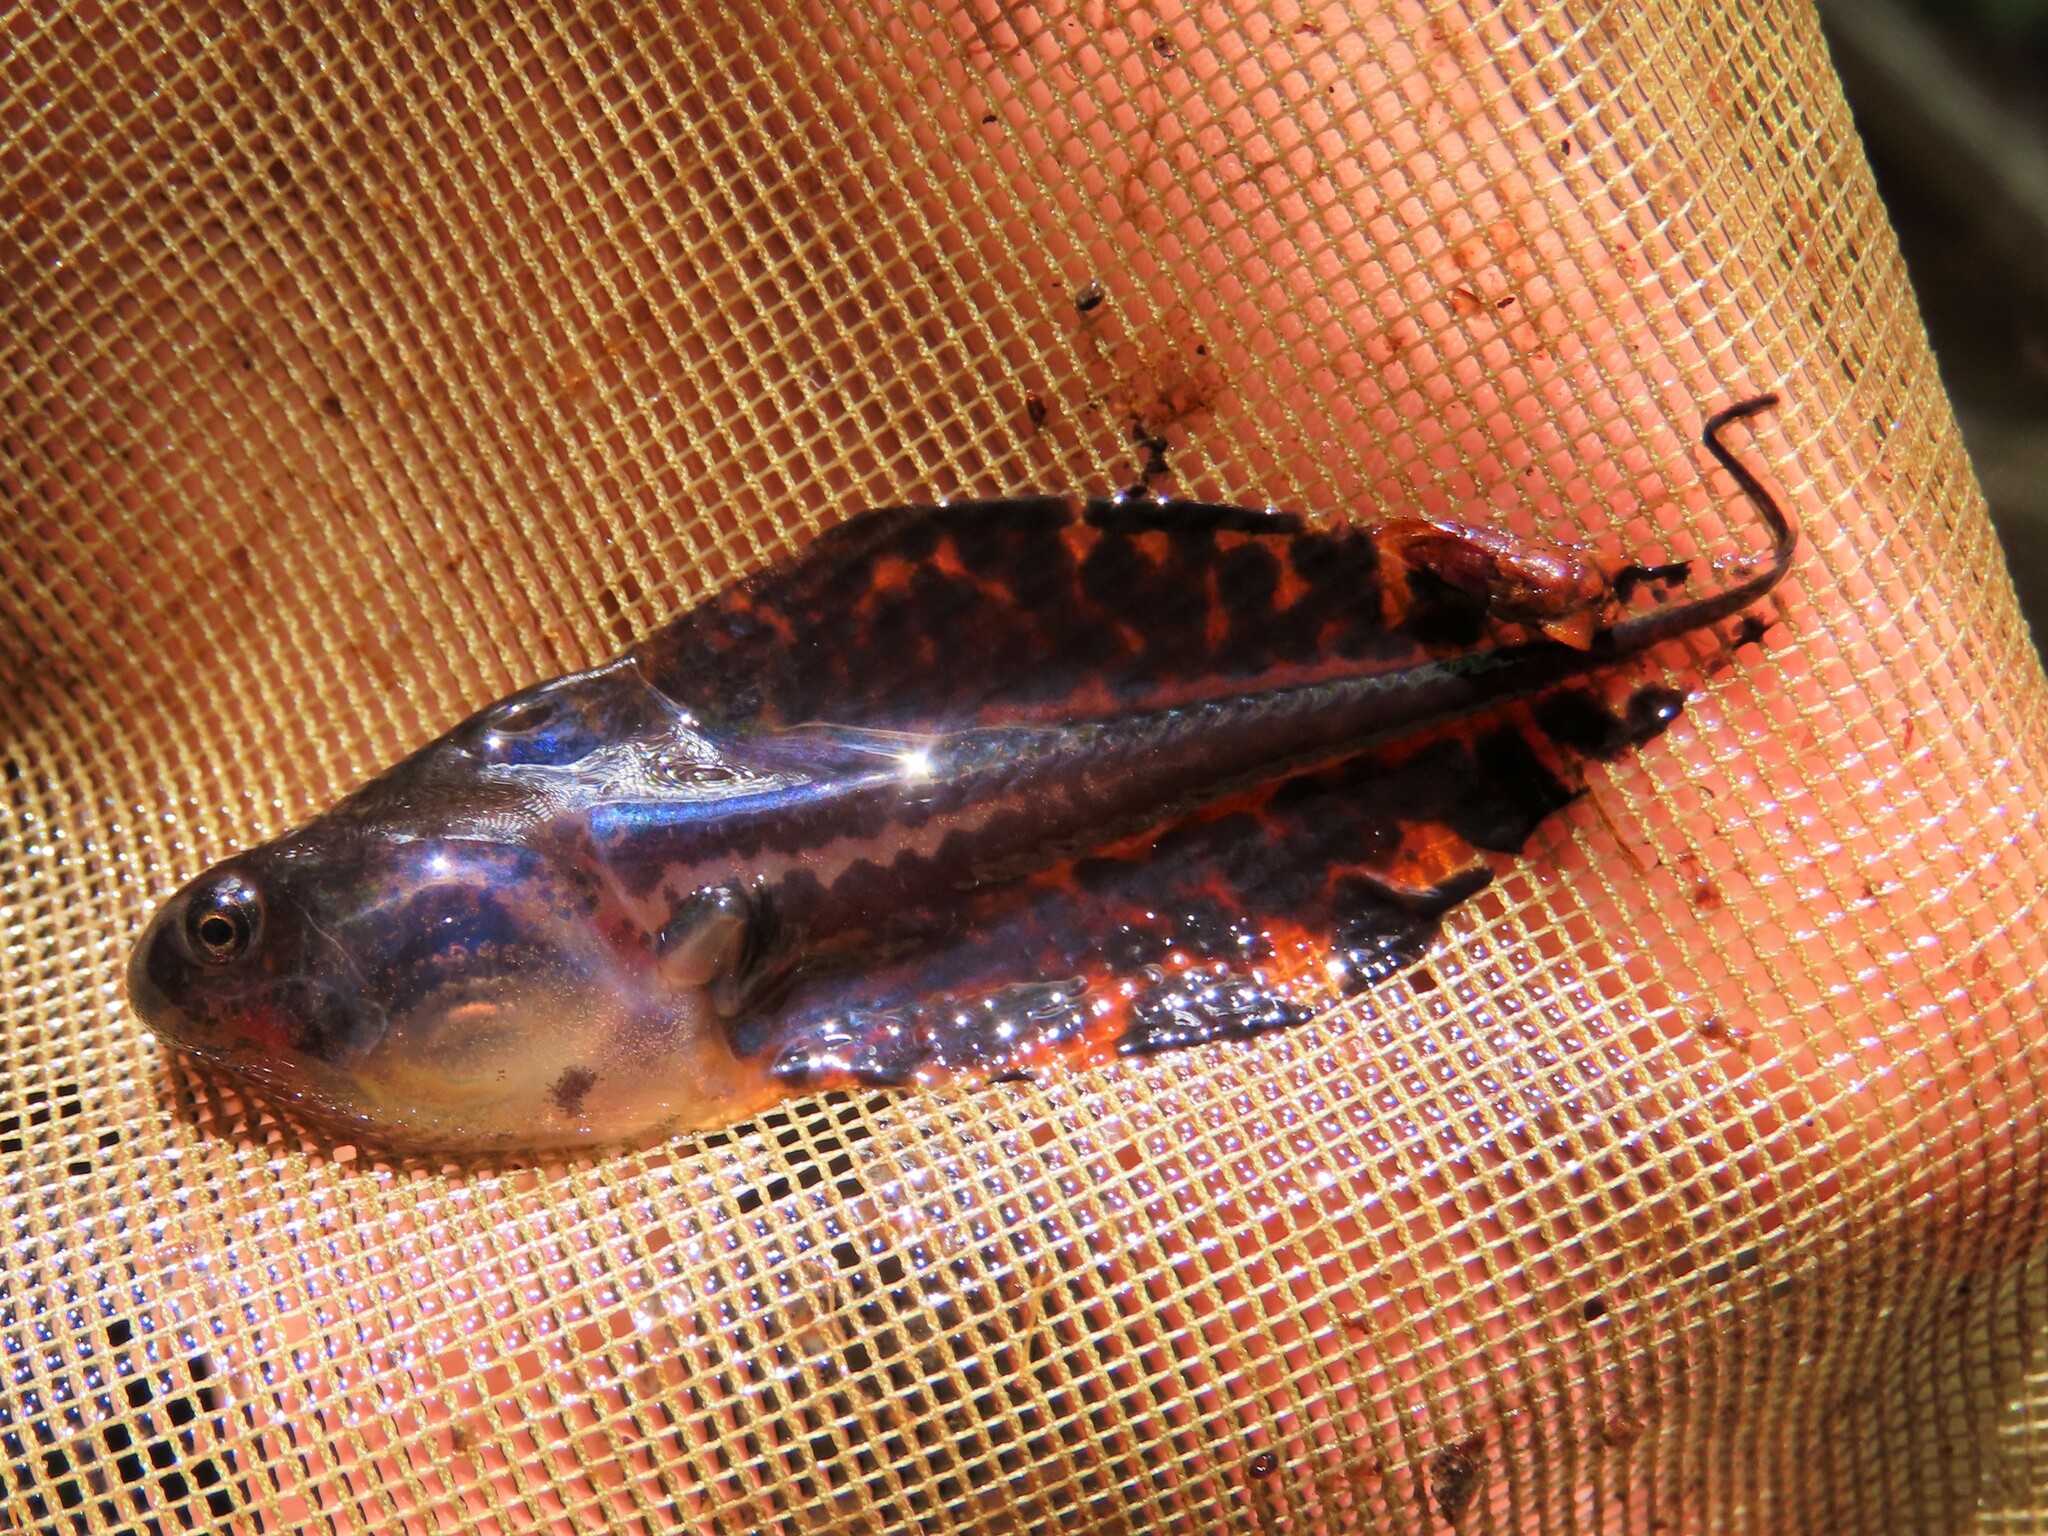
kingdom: Animalia
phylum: Chordata
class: Amphibia
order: Anura
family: Hylidae
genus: Hyla
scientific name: Hyla femoralis
